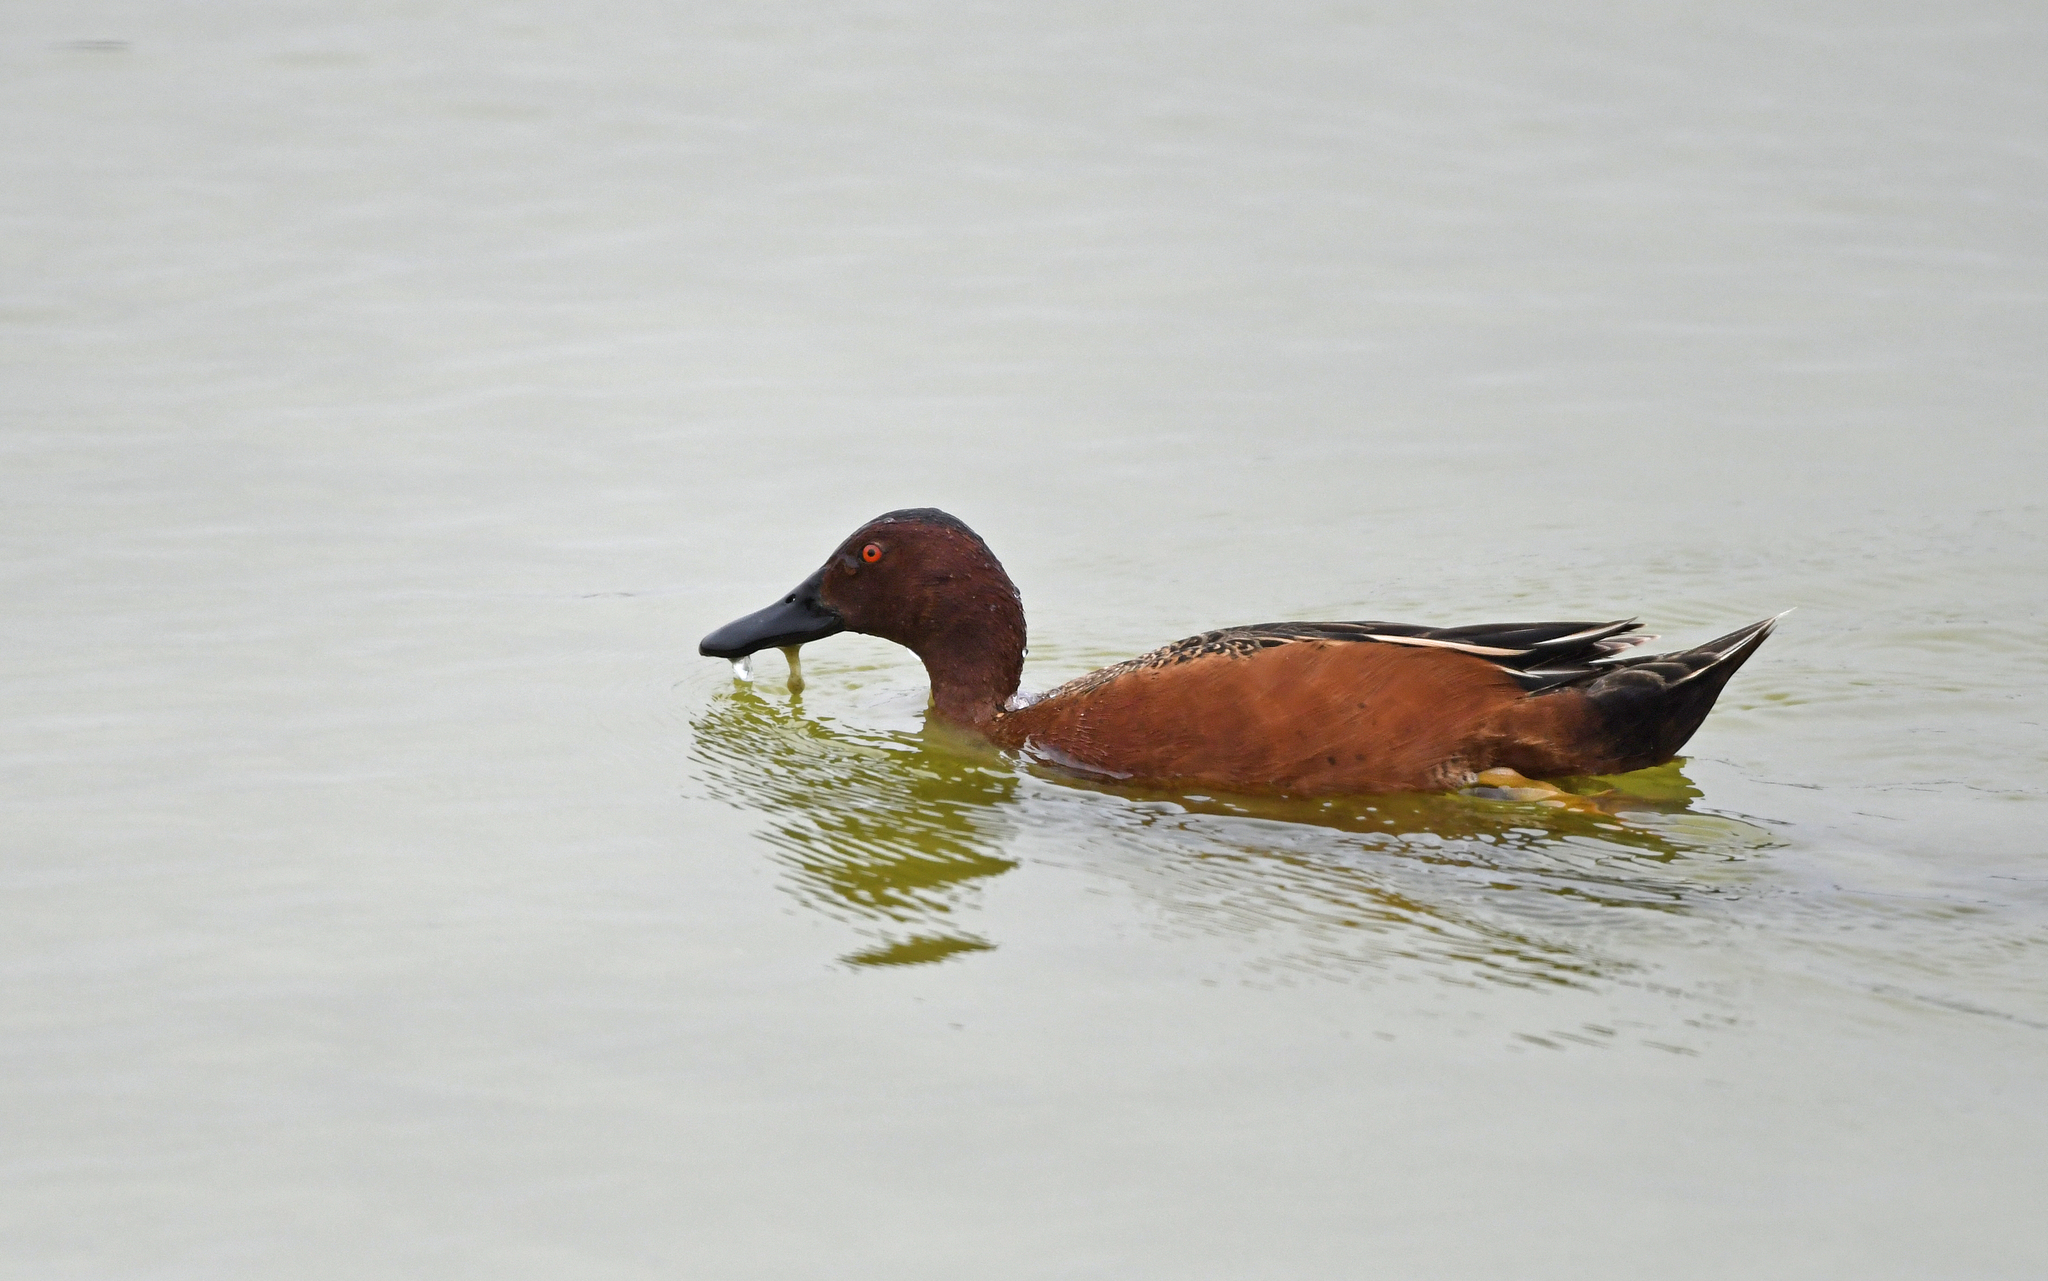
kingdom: Animalia
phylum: Chordata
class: Aves
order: Anseriformes
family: Anatidae
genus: Spatula
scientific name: Spatula cyanoptera
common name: Cinnamon teal
